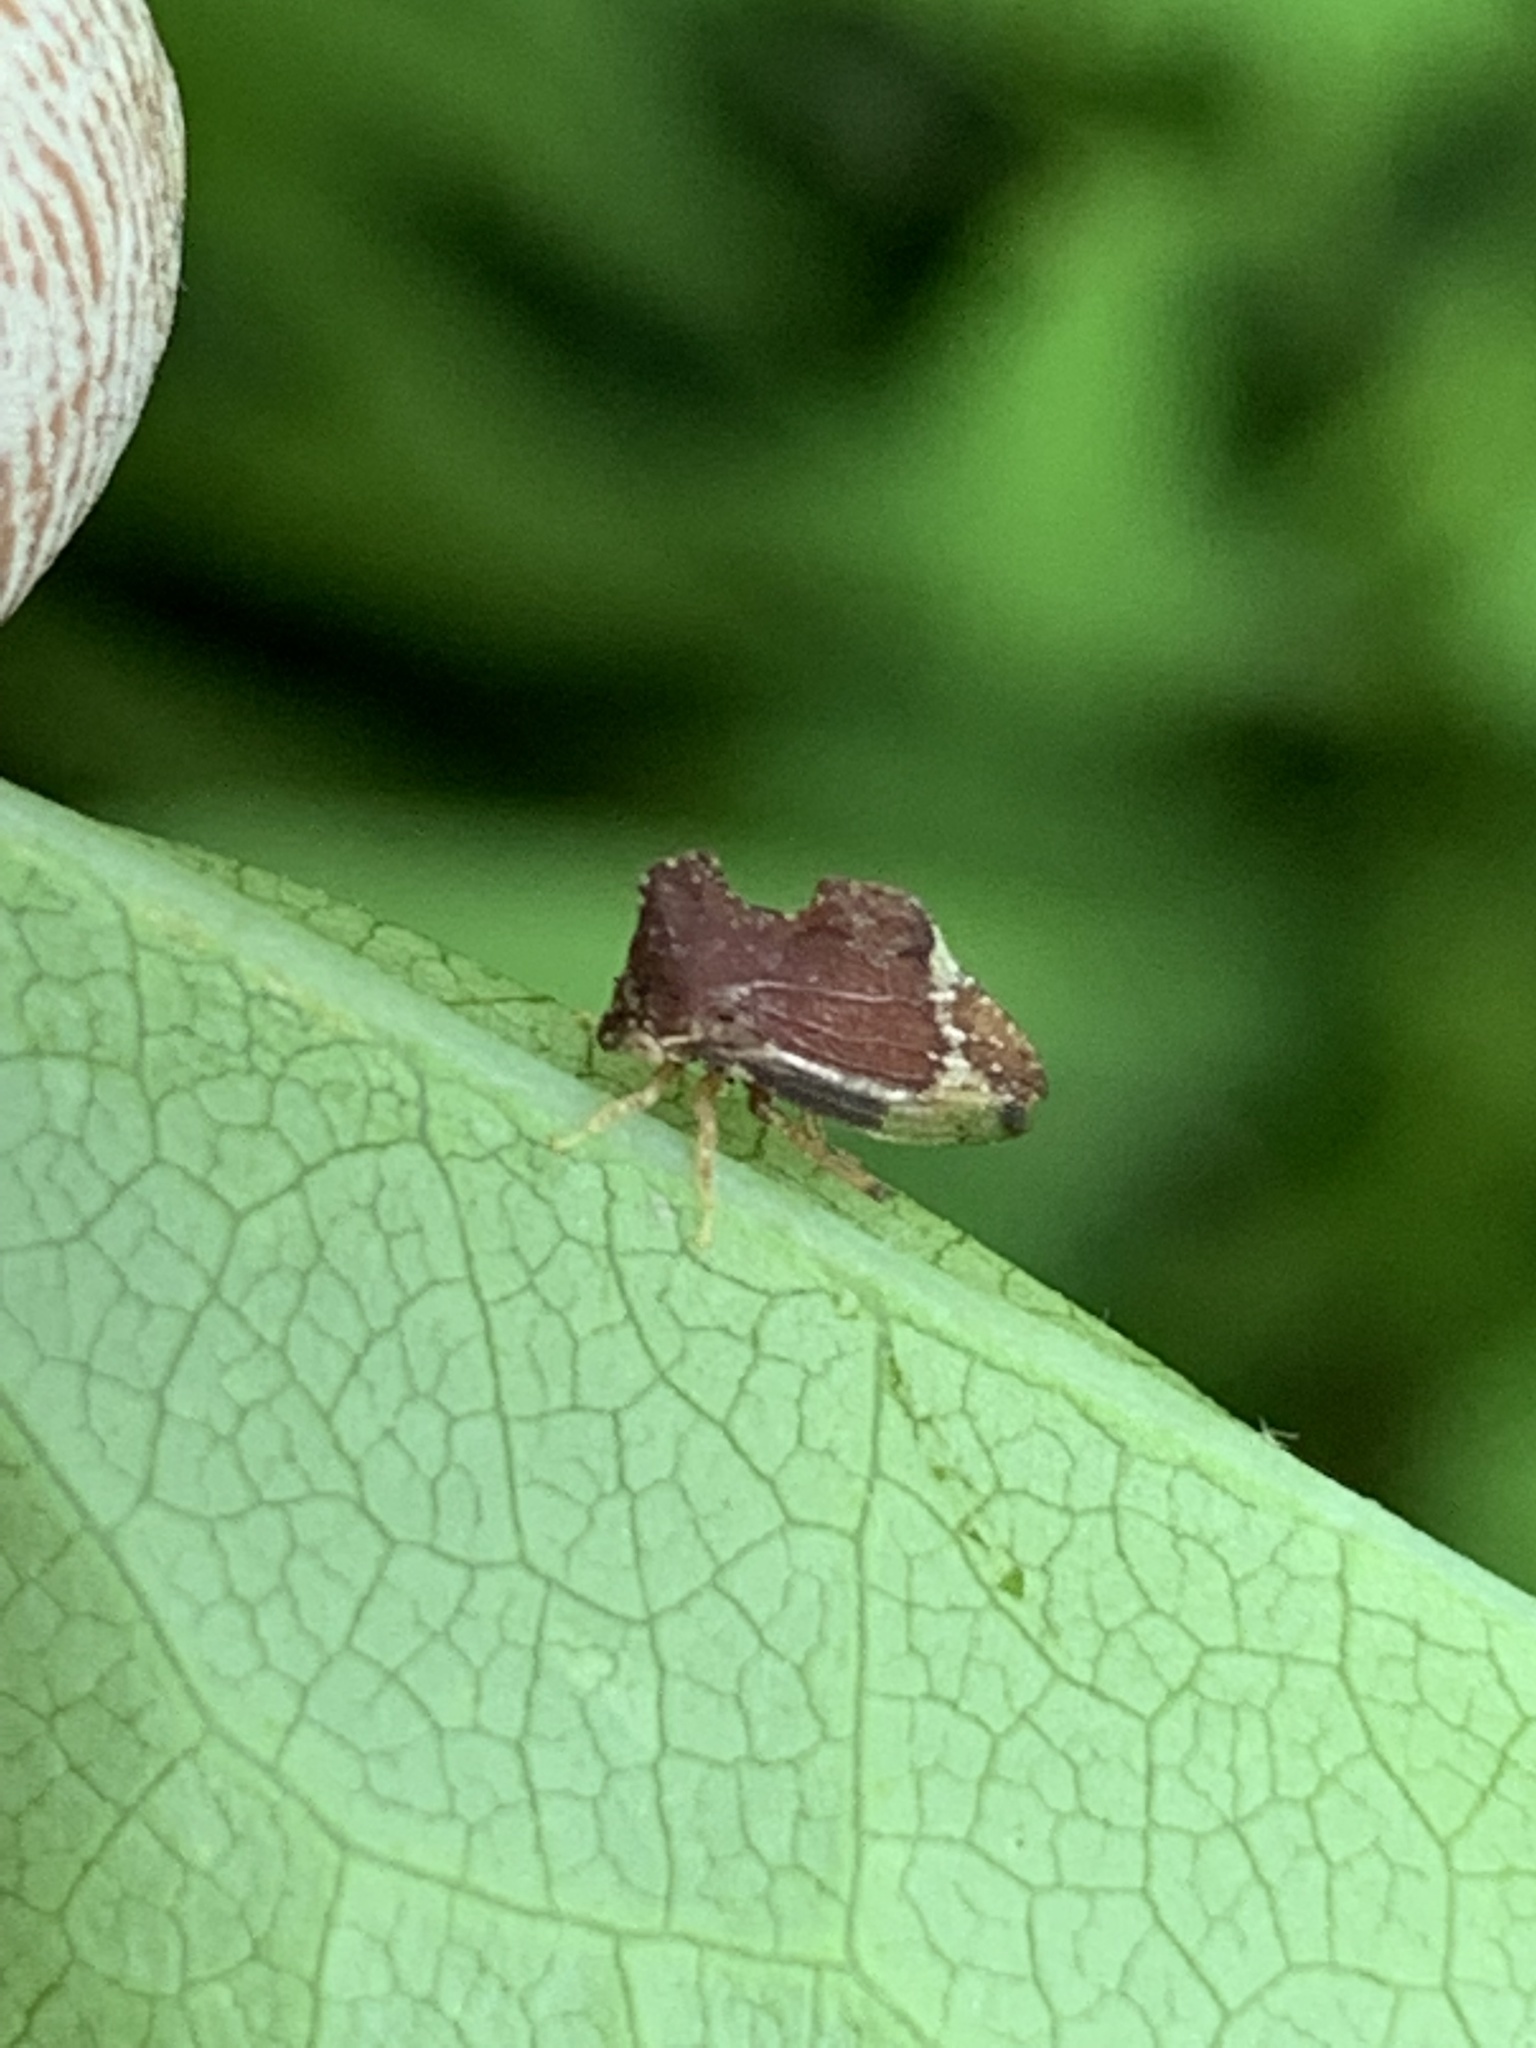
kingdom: Animalia
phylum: Arthropoda
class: Insecta
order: Hemiptera
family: Membracidae
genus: Entylia
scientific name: Entylia carinata
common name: Keeled treehopper
